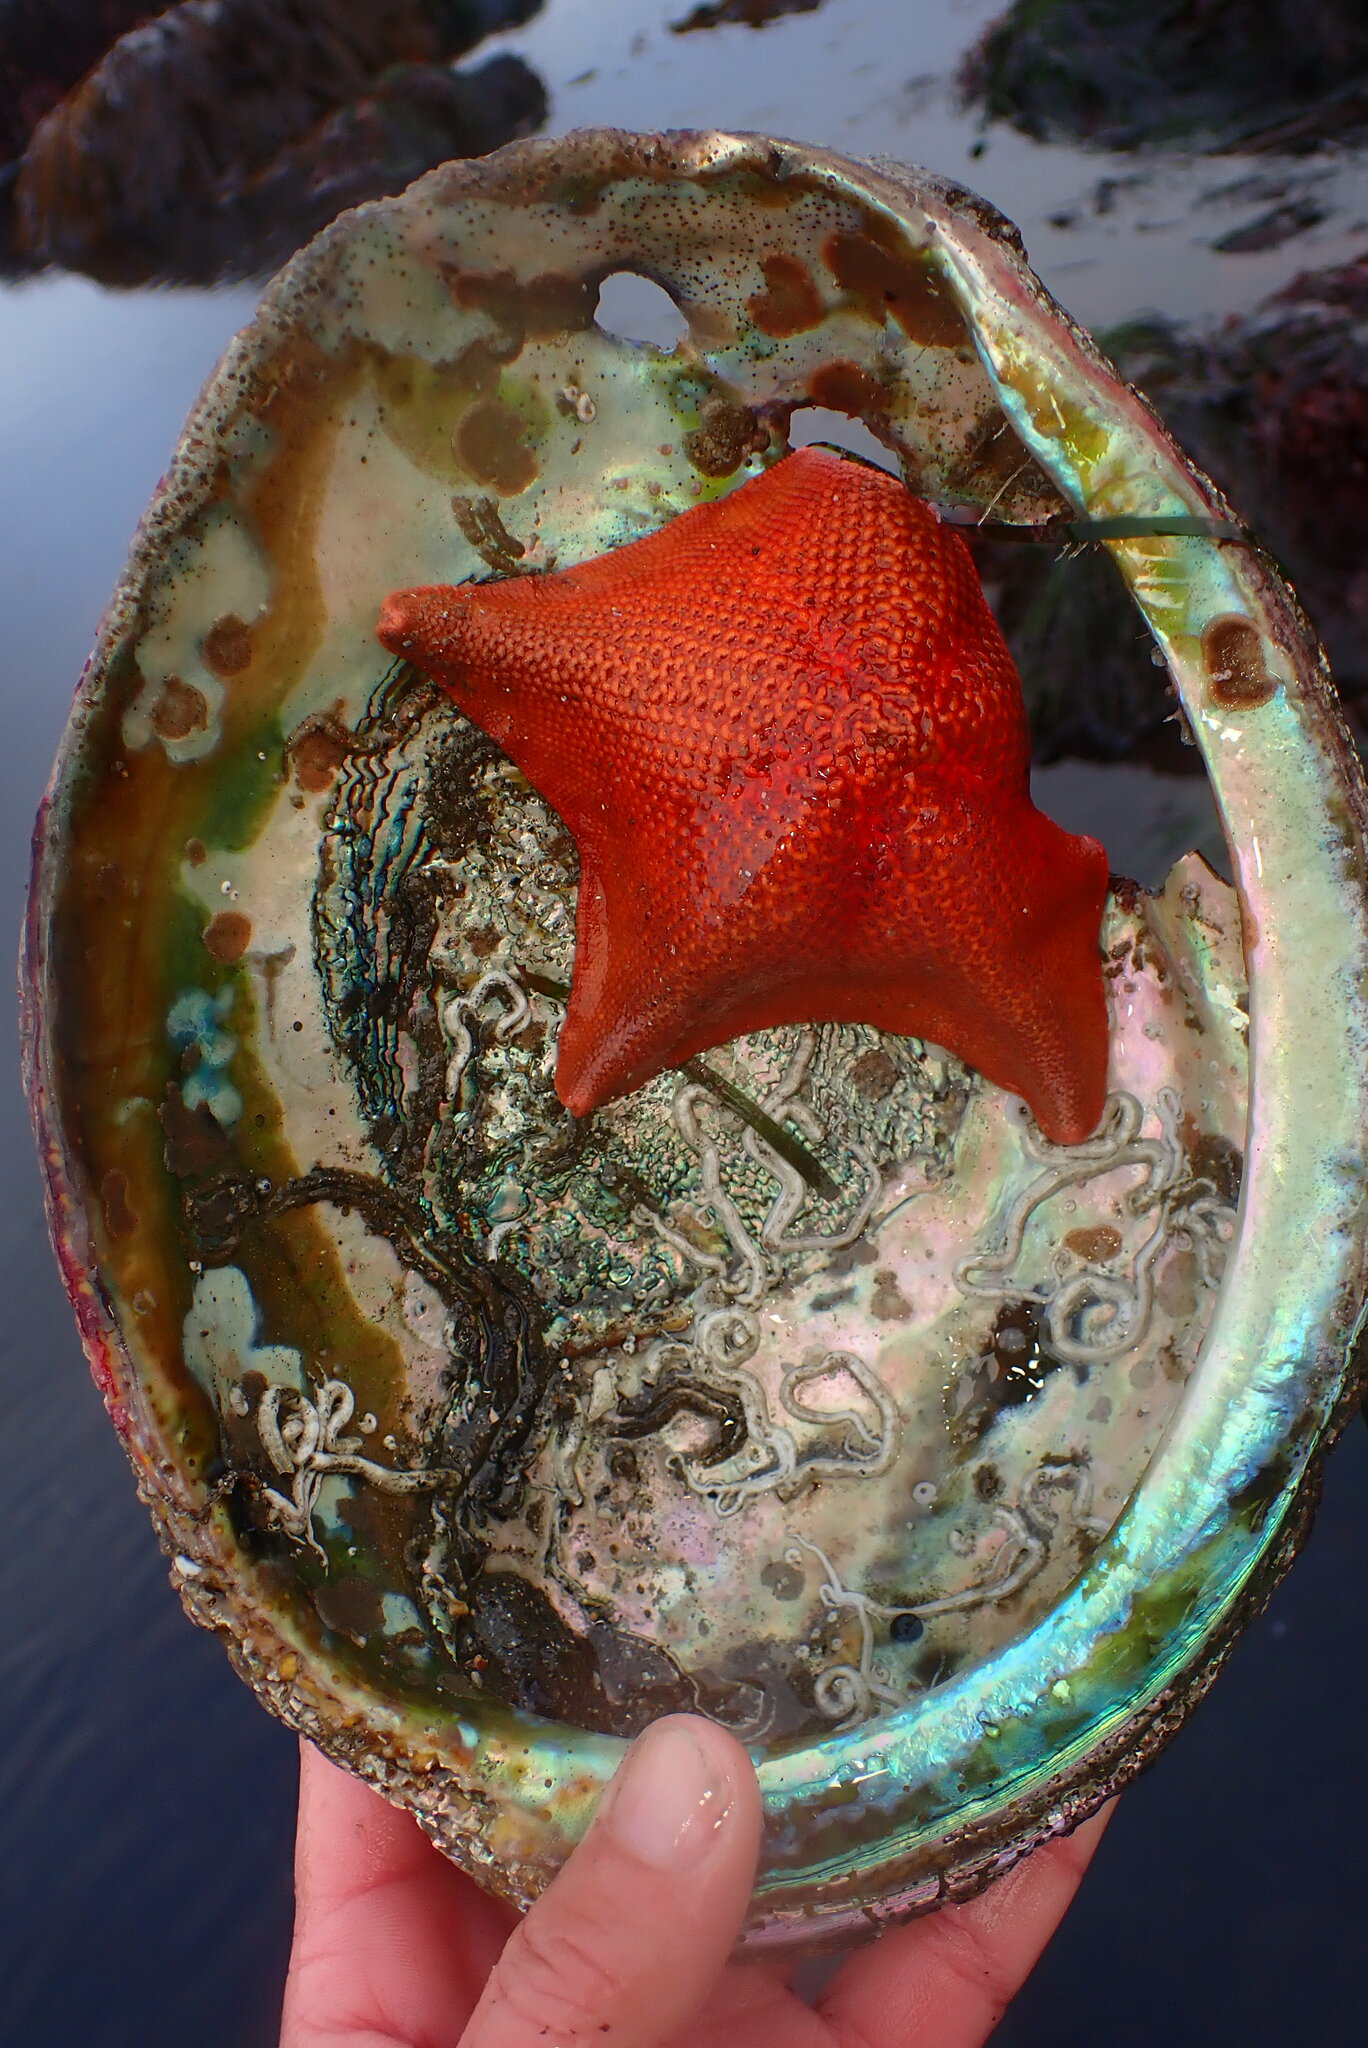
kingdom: Animalia
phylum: Echinodermata
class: Asteroidea
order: Valvatida
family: Asterinidae
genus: Patiria
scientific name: Patiria miniata
